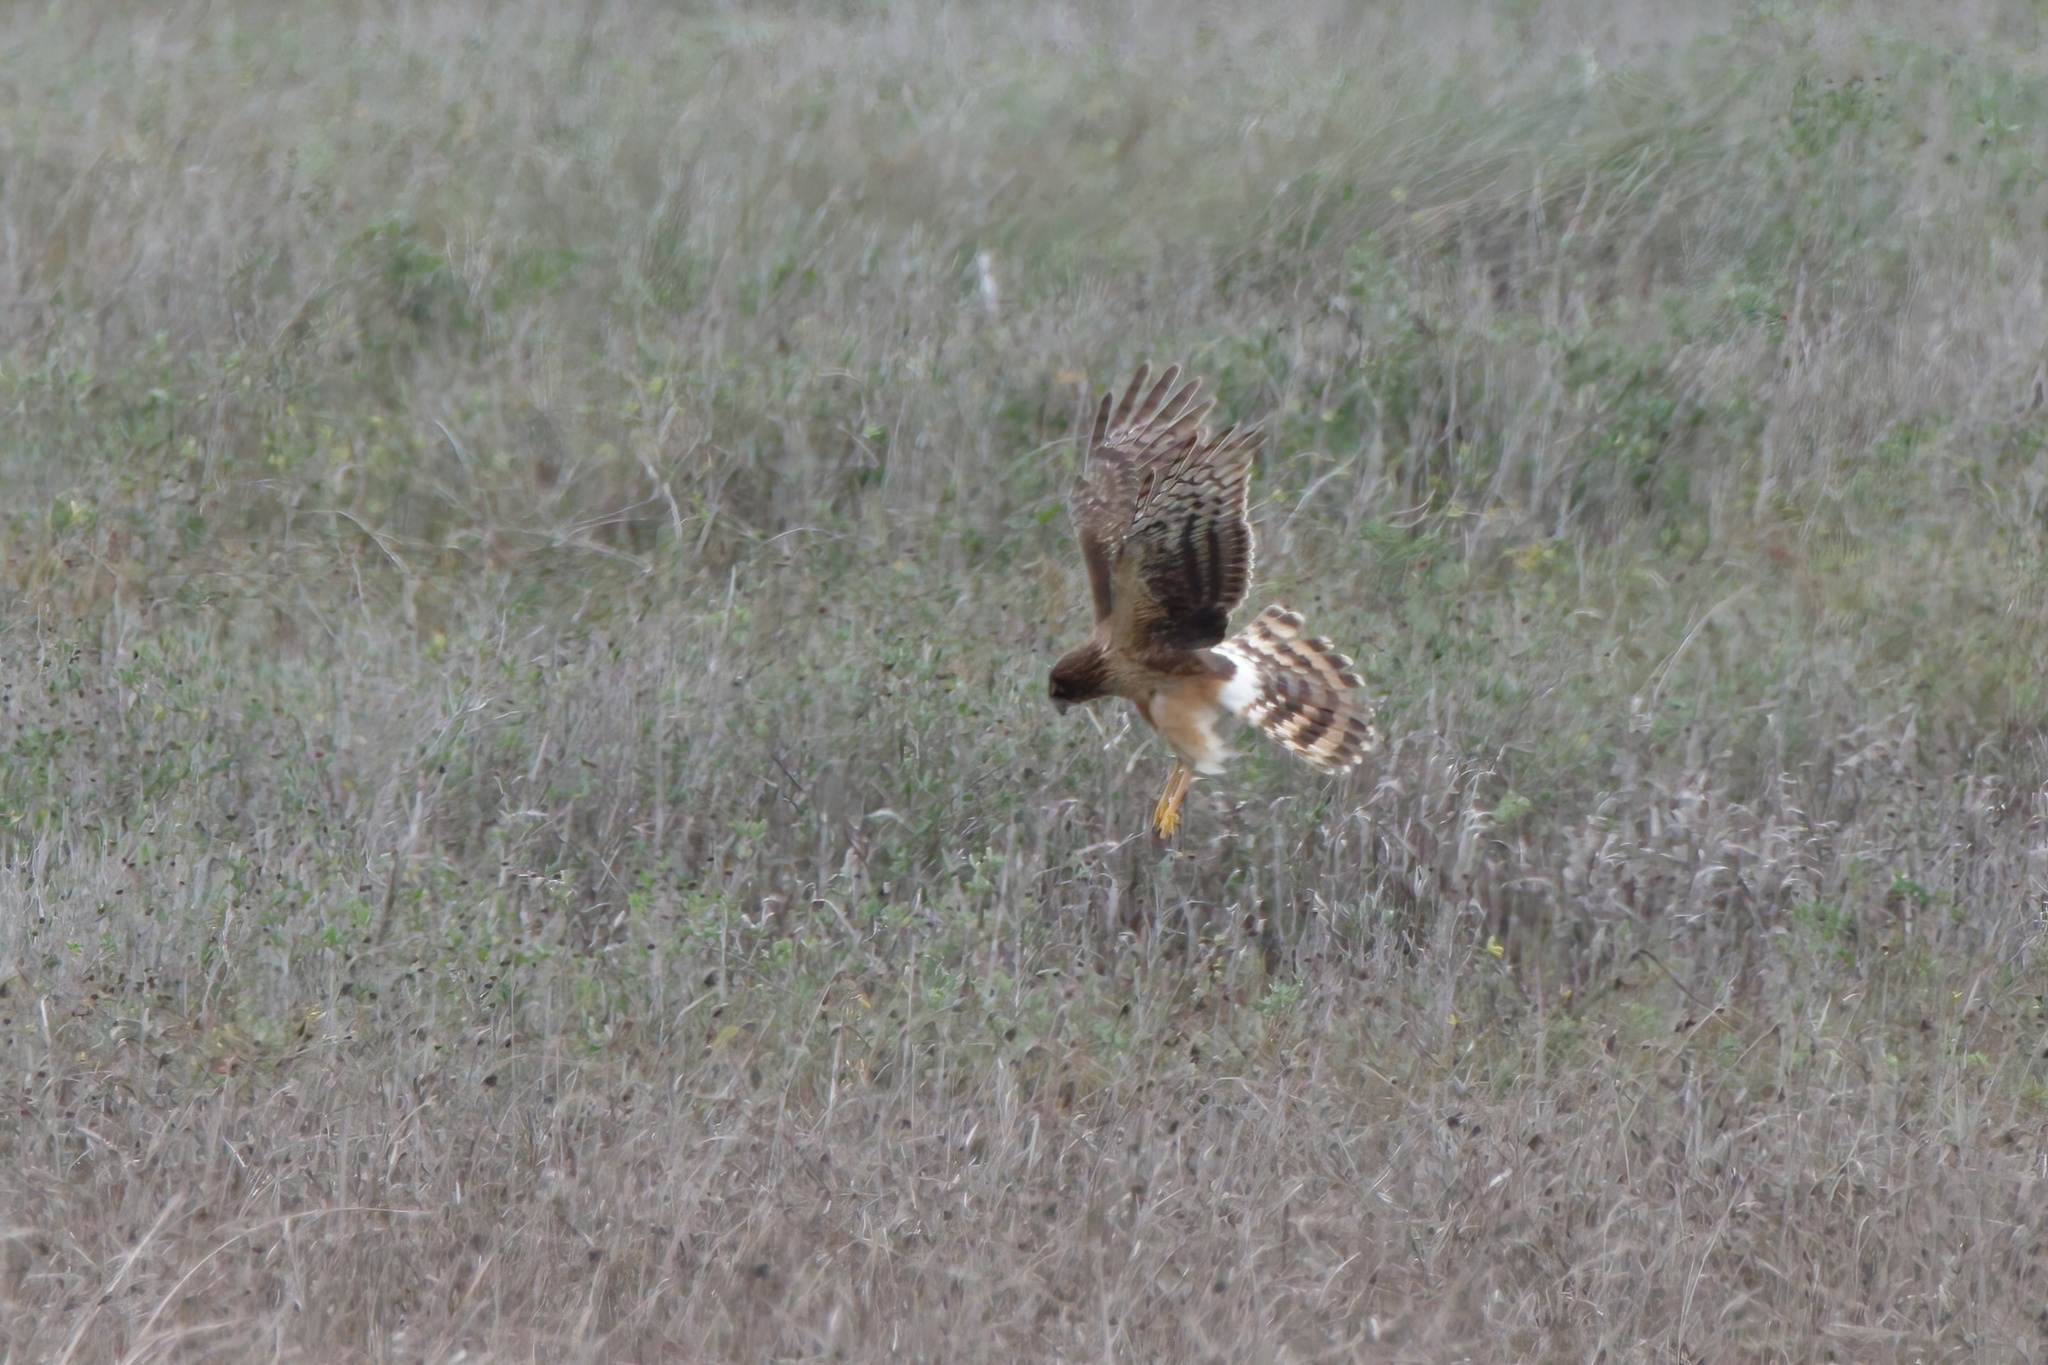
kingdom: Animalia
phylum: Chordata
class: Aves
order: Accipitriformes
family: Accipitridae
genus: Circus
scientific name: Circus cyaneus
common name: Hen harrier
